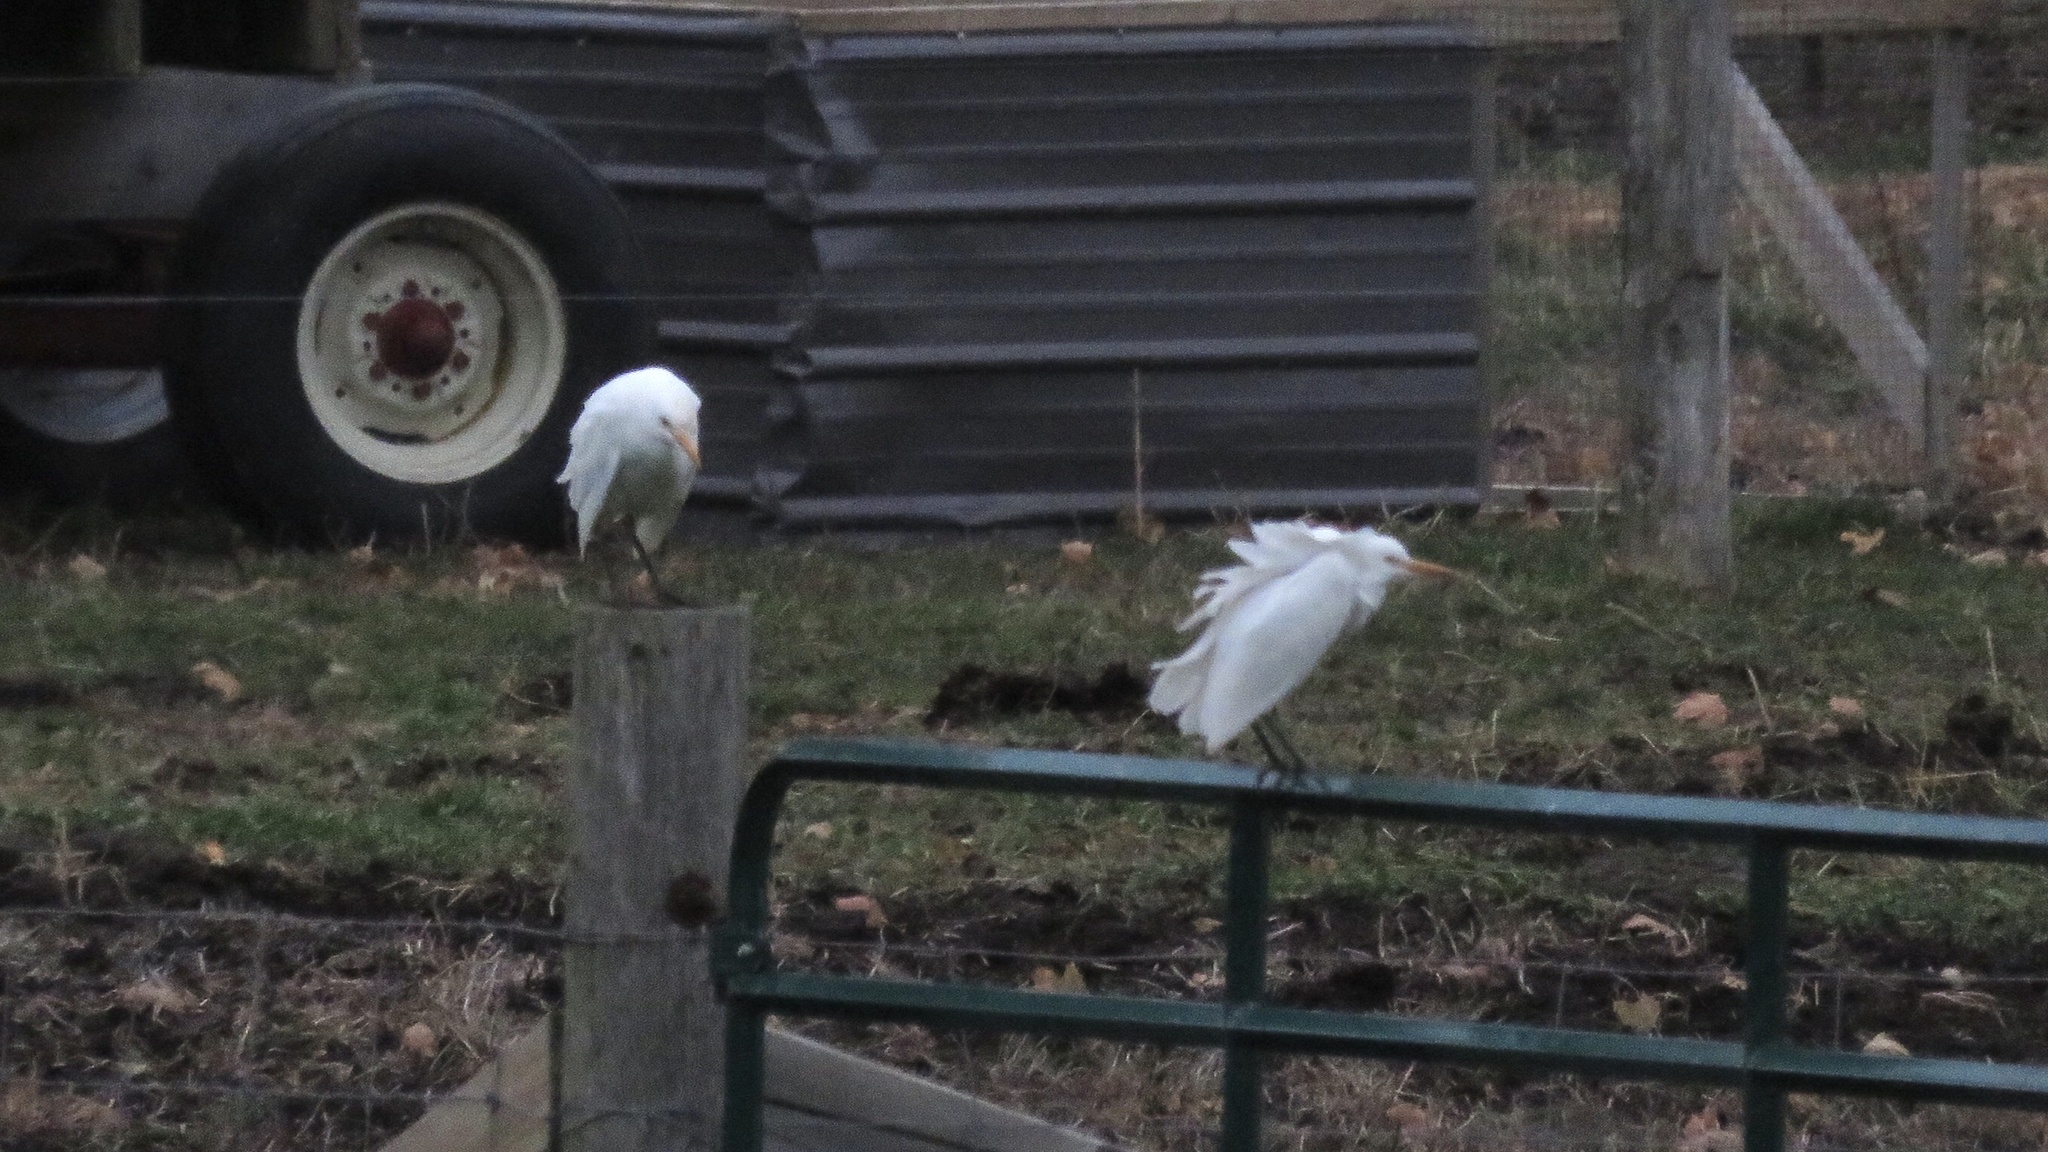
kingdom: Animalia
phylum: Chordata
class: Aves
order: Pelecaniformes
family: Ardeidae
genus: Bubulcus
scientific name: Bubulcus ibis
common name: Cattle egret
